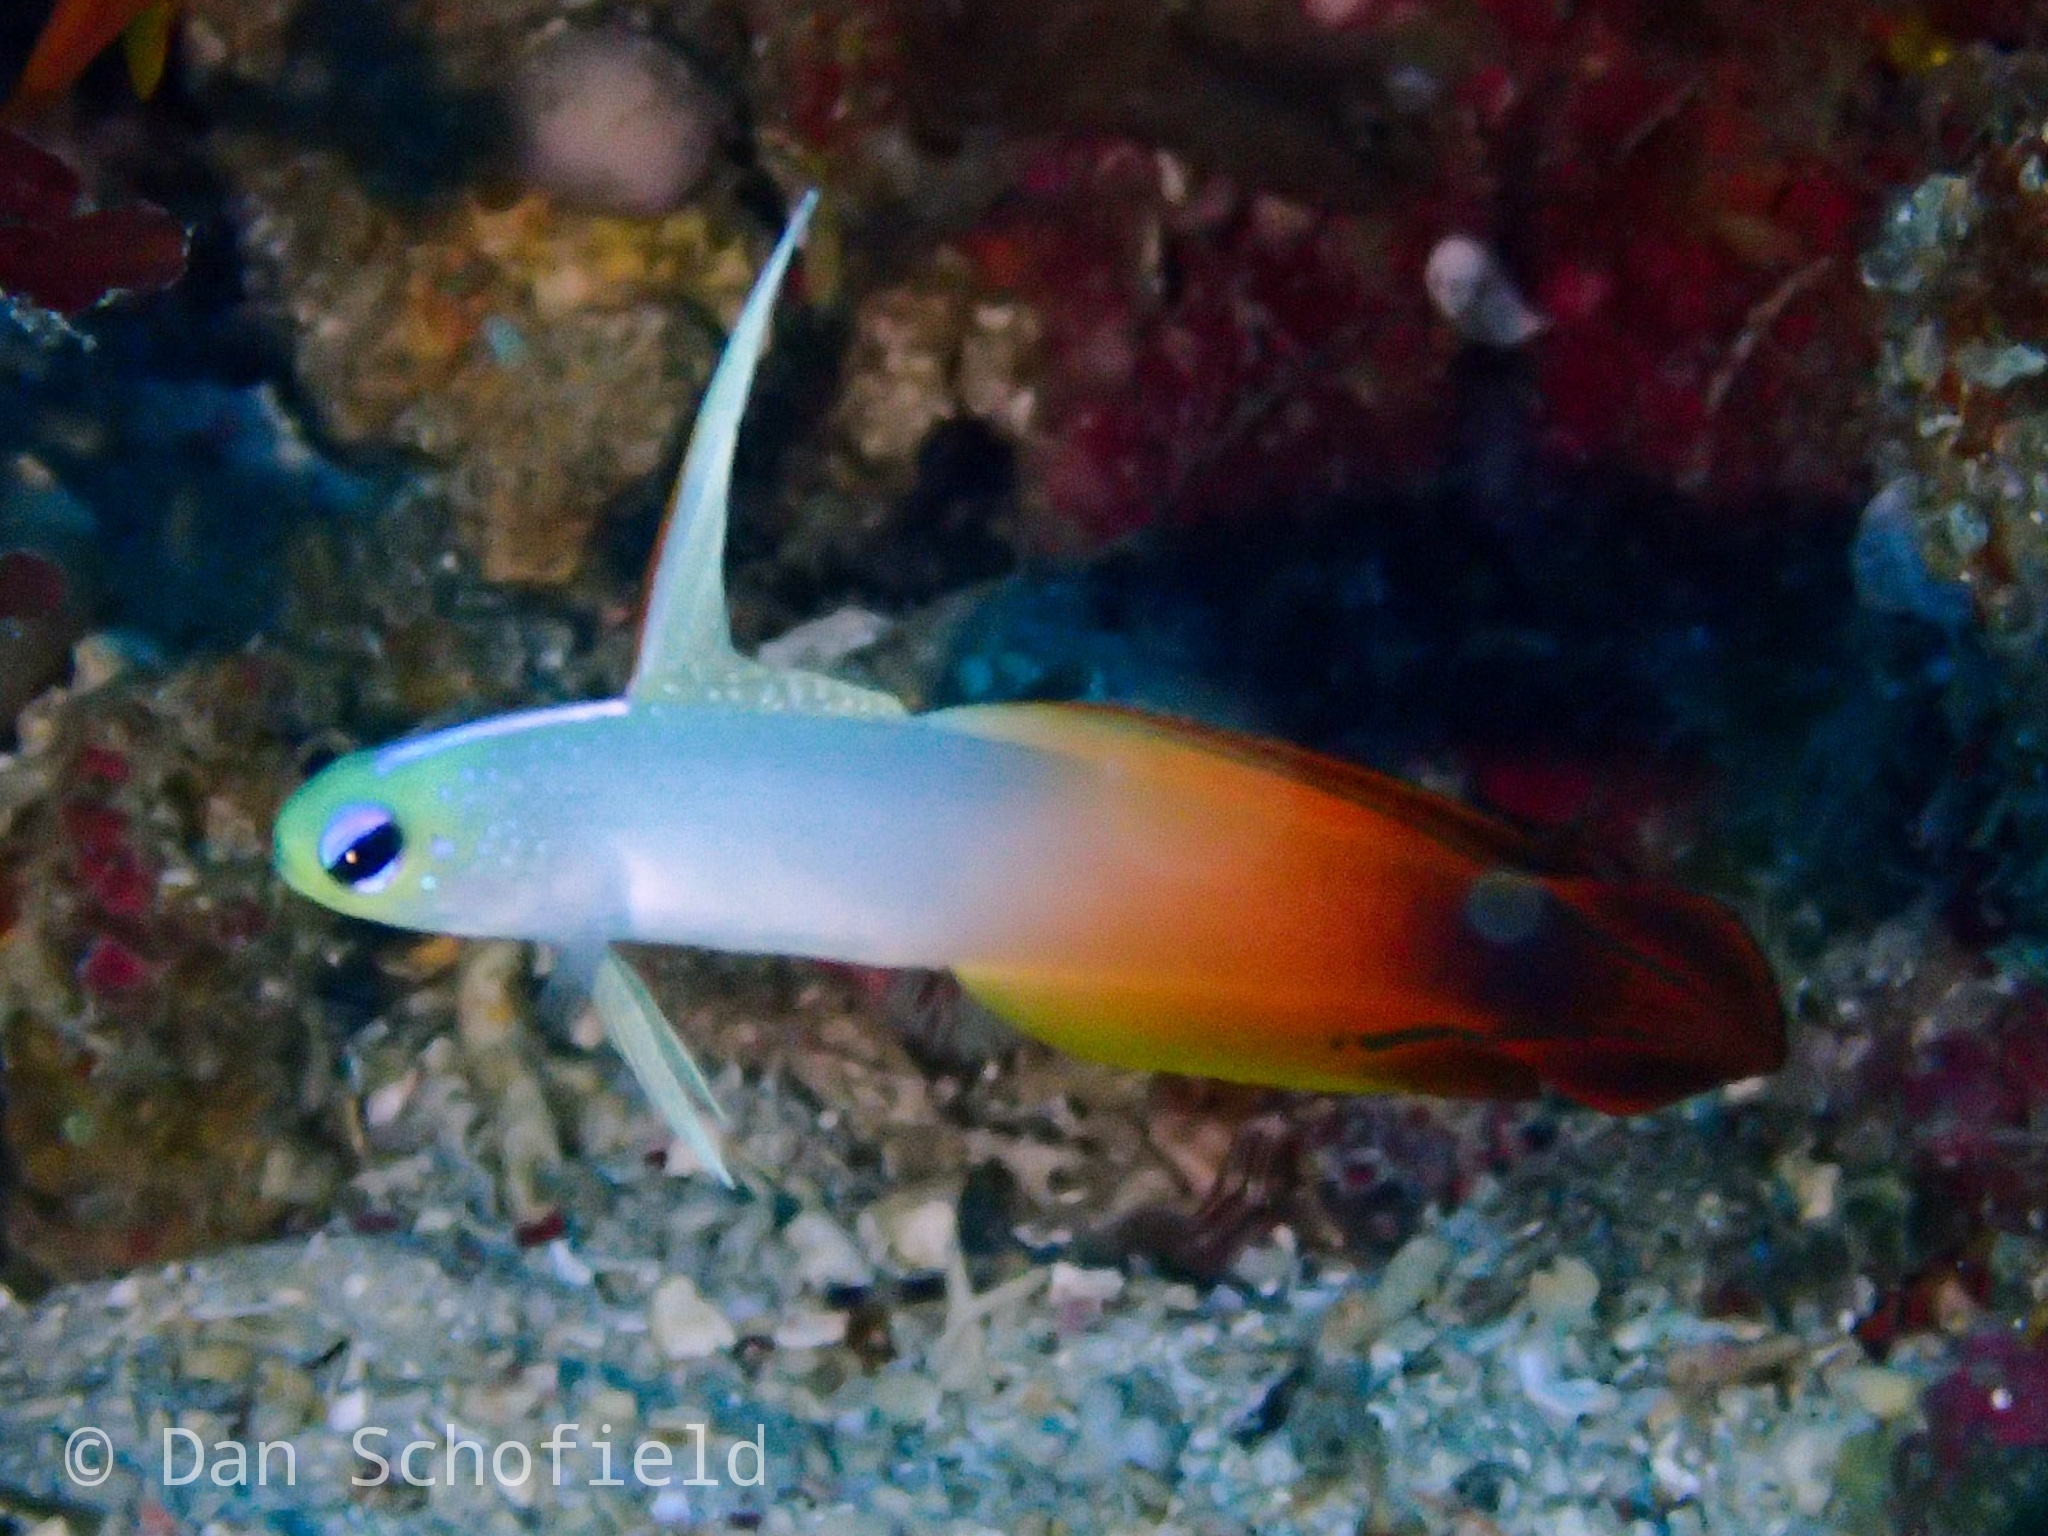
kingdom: Animalia
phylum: Chordata
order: Perciformes
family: Microdesmidae
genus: Nemateleotris
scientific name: Nemateleotris magnifica
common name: Fire goby
